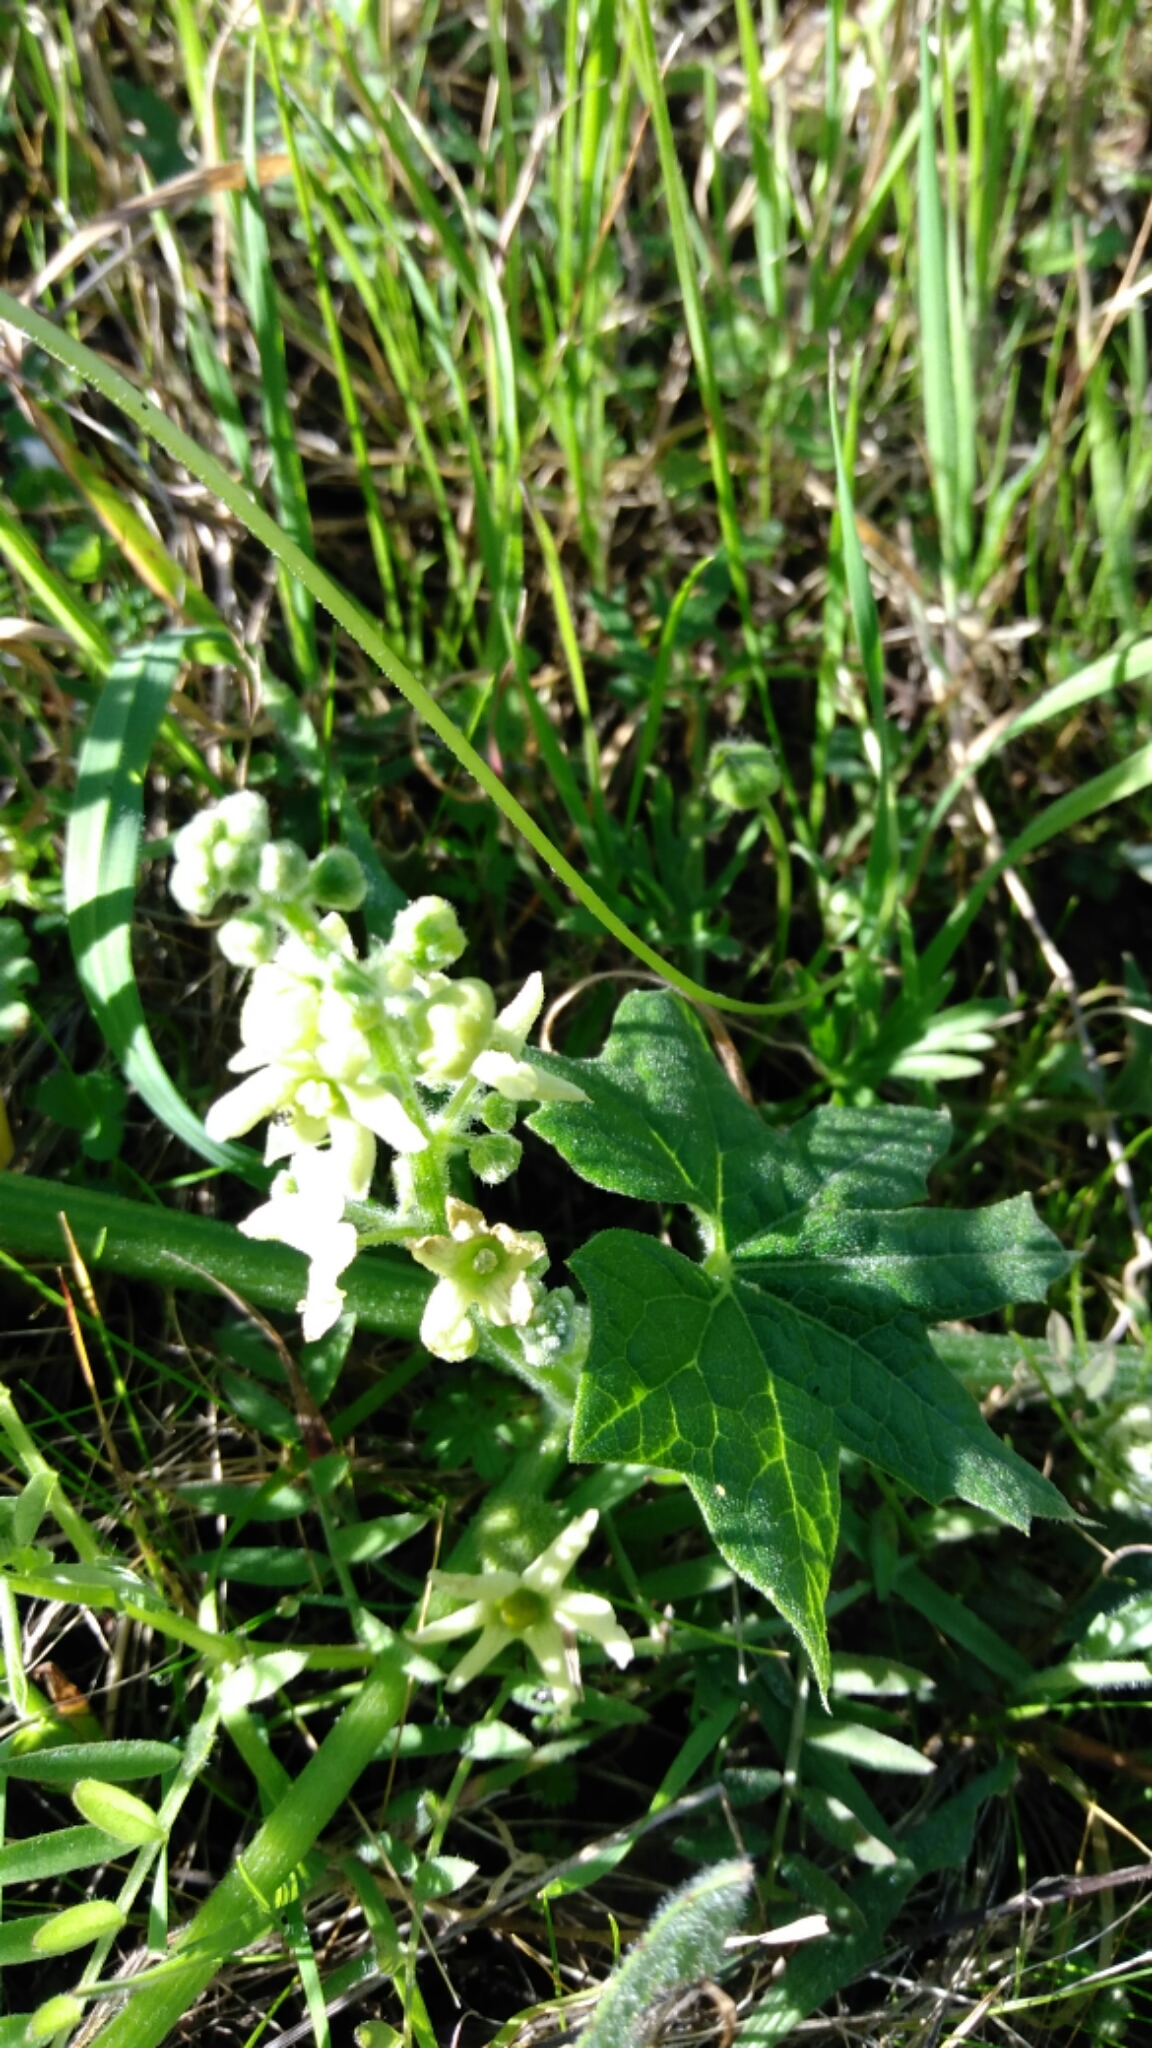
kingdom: Plantae
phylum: Tracheophyta
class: Magnoliopsida
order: Cucurbitales
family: Cucurbitaceae
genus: Marah
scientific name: Marah fabacea
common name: California manroot
